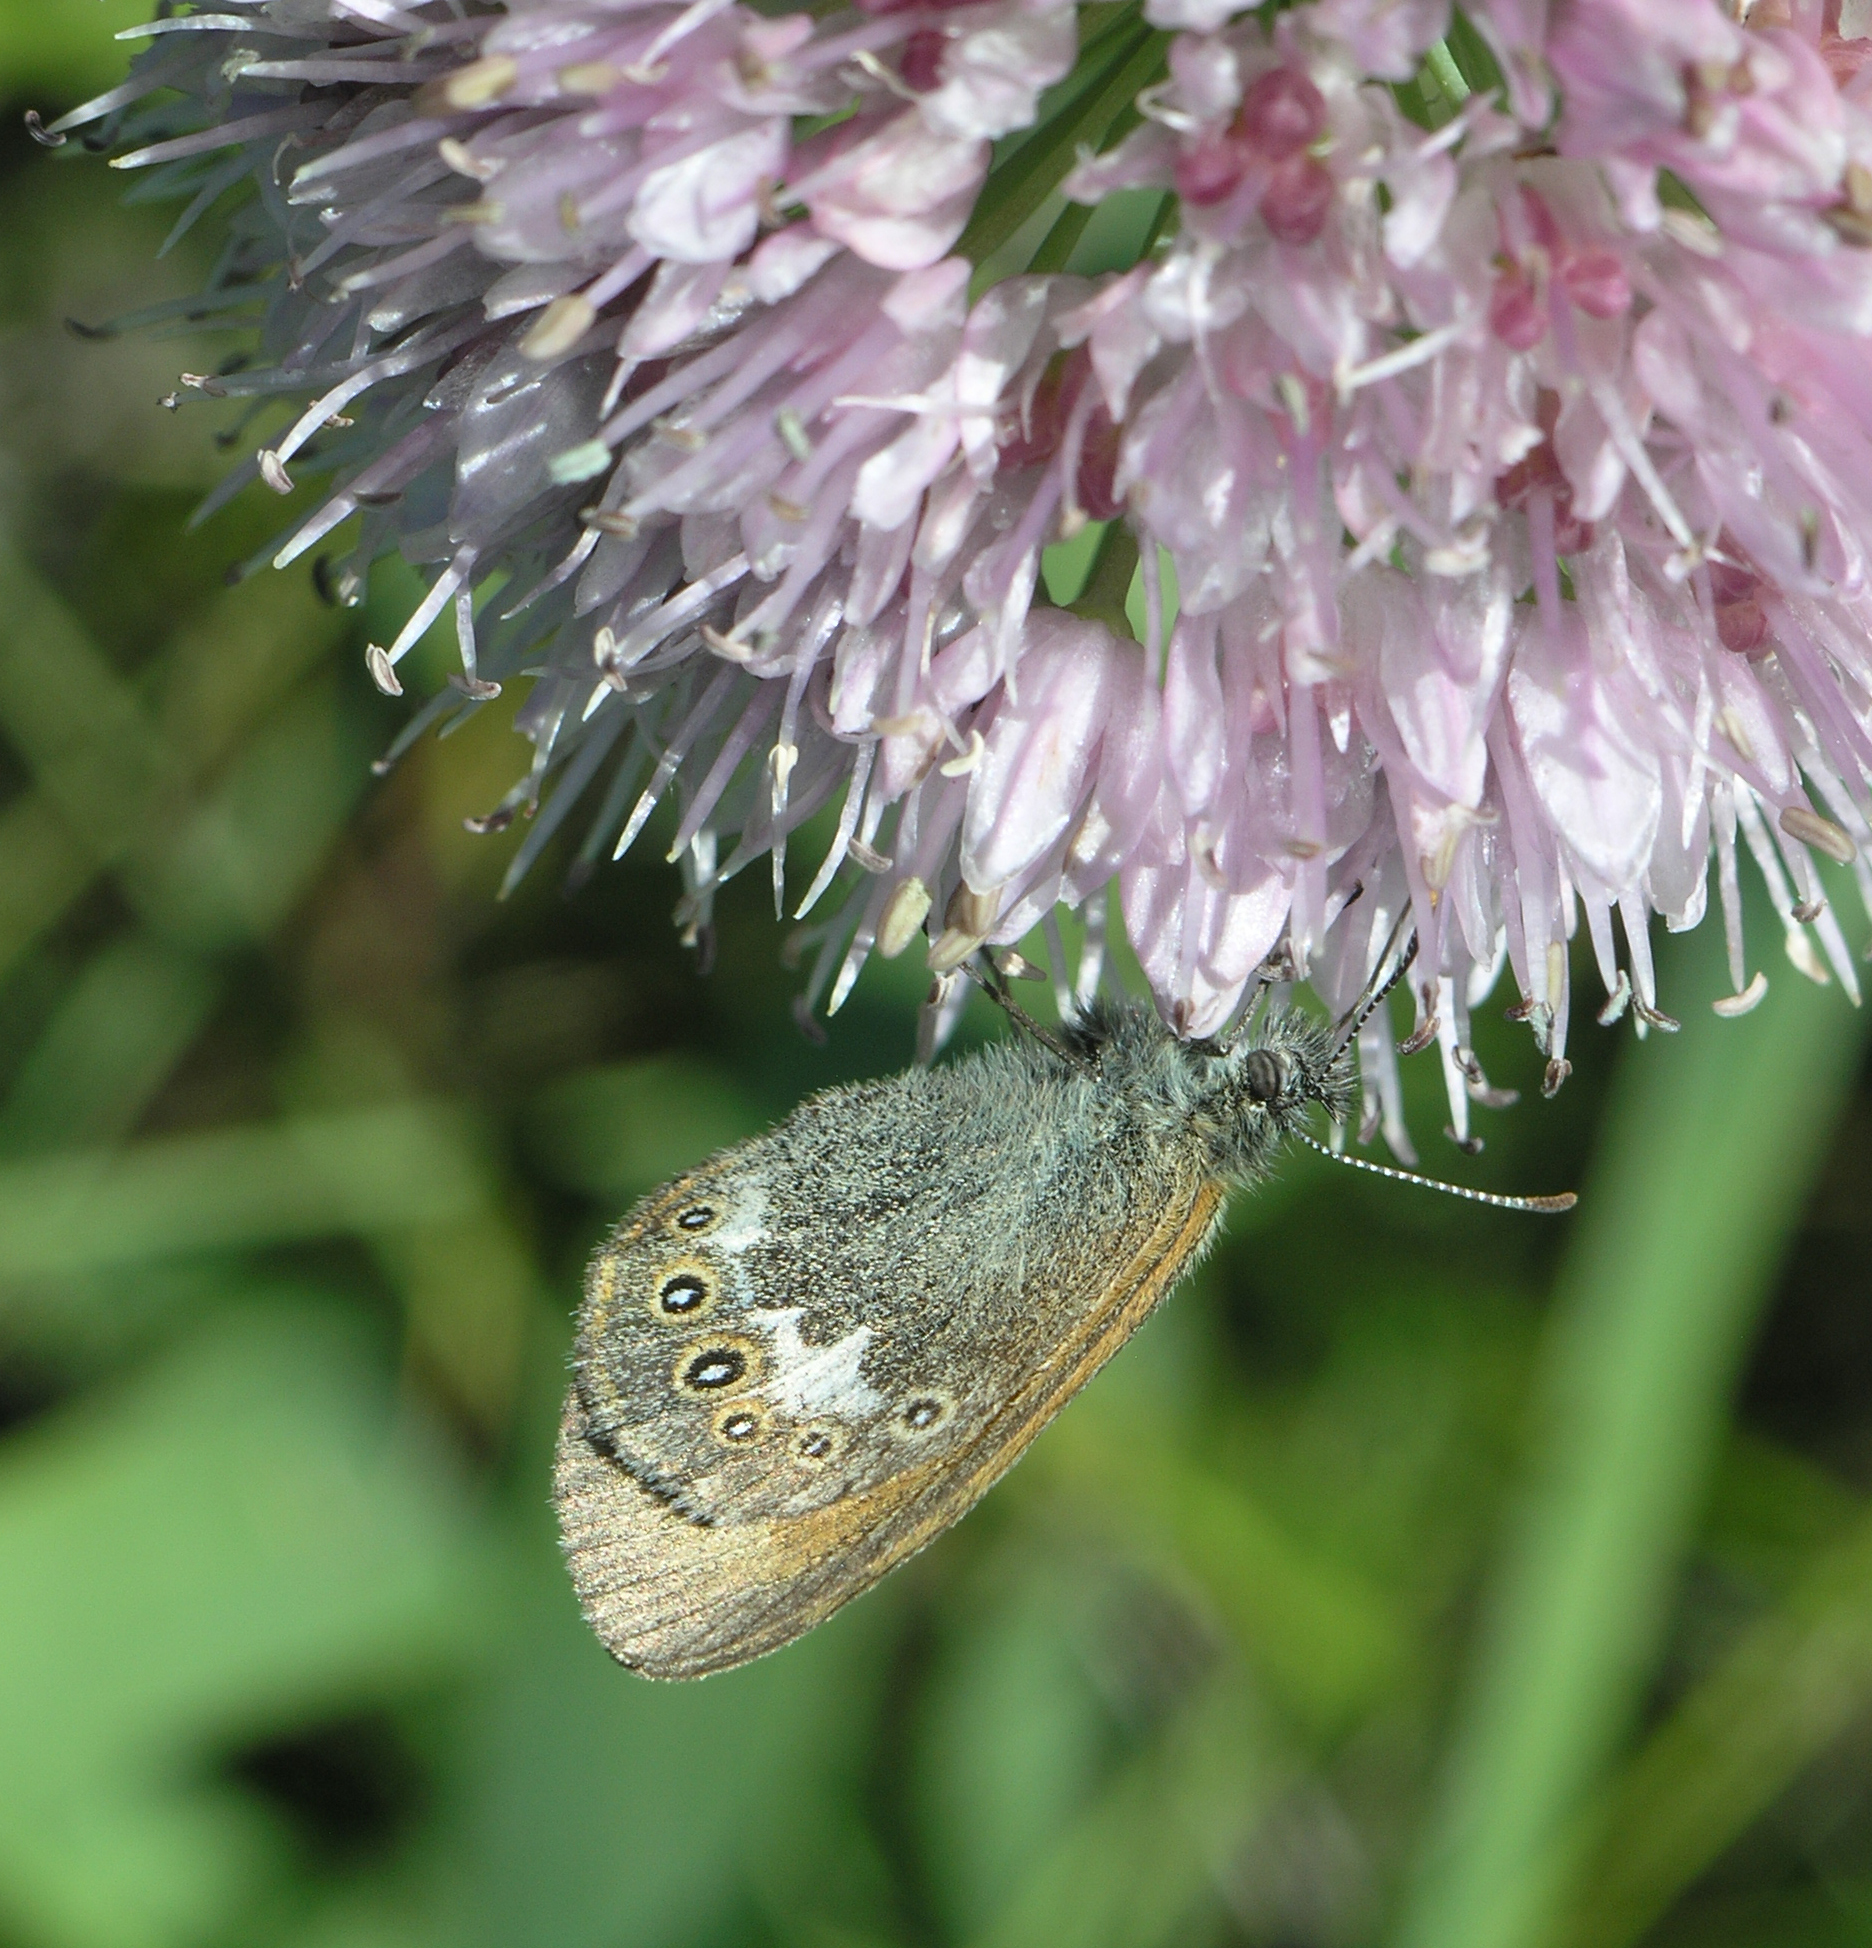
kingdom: Animalia
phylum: Arthropoda
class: Insecta
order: Lepidoptera
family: Nymphalidae
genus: Coenonympha
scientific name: Coenonympha iphis
